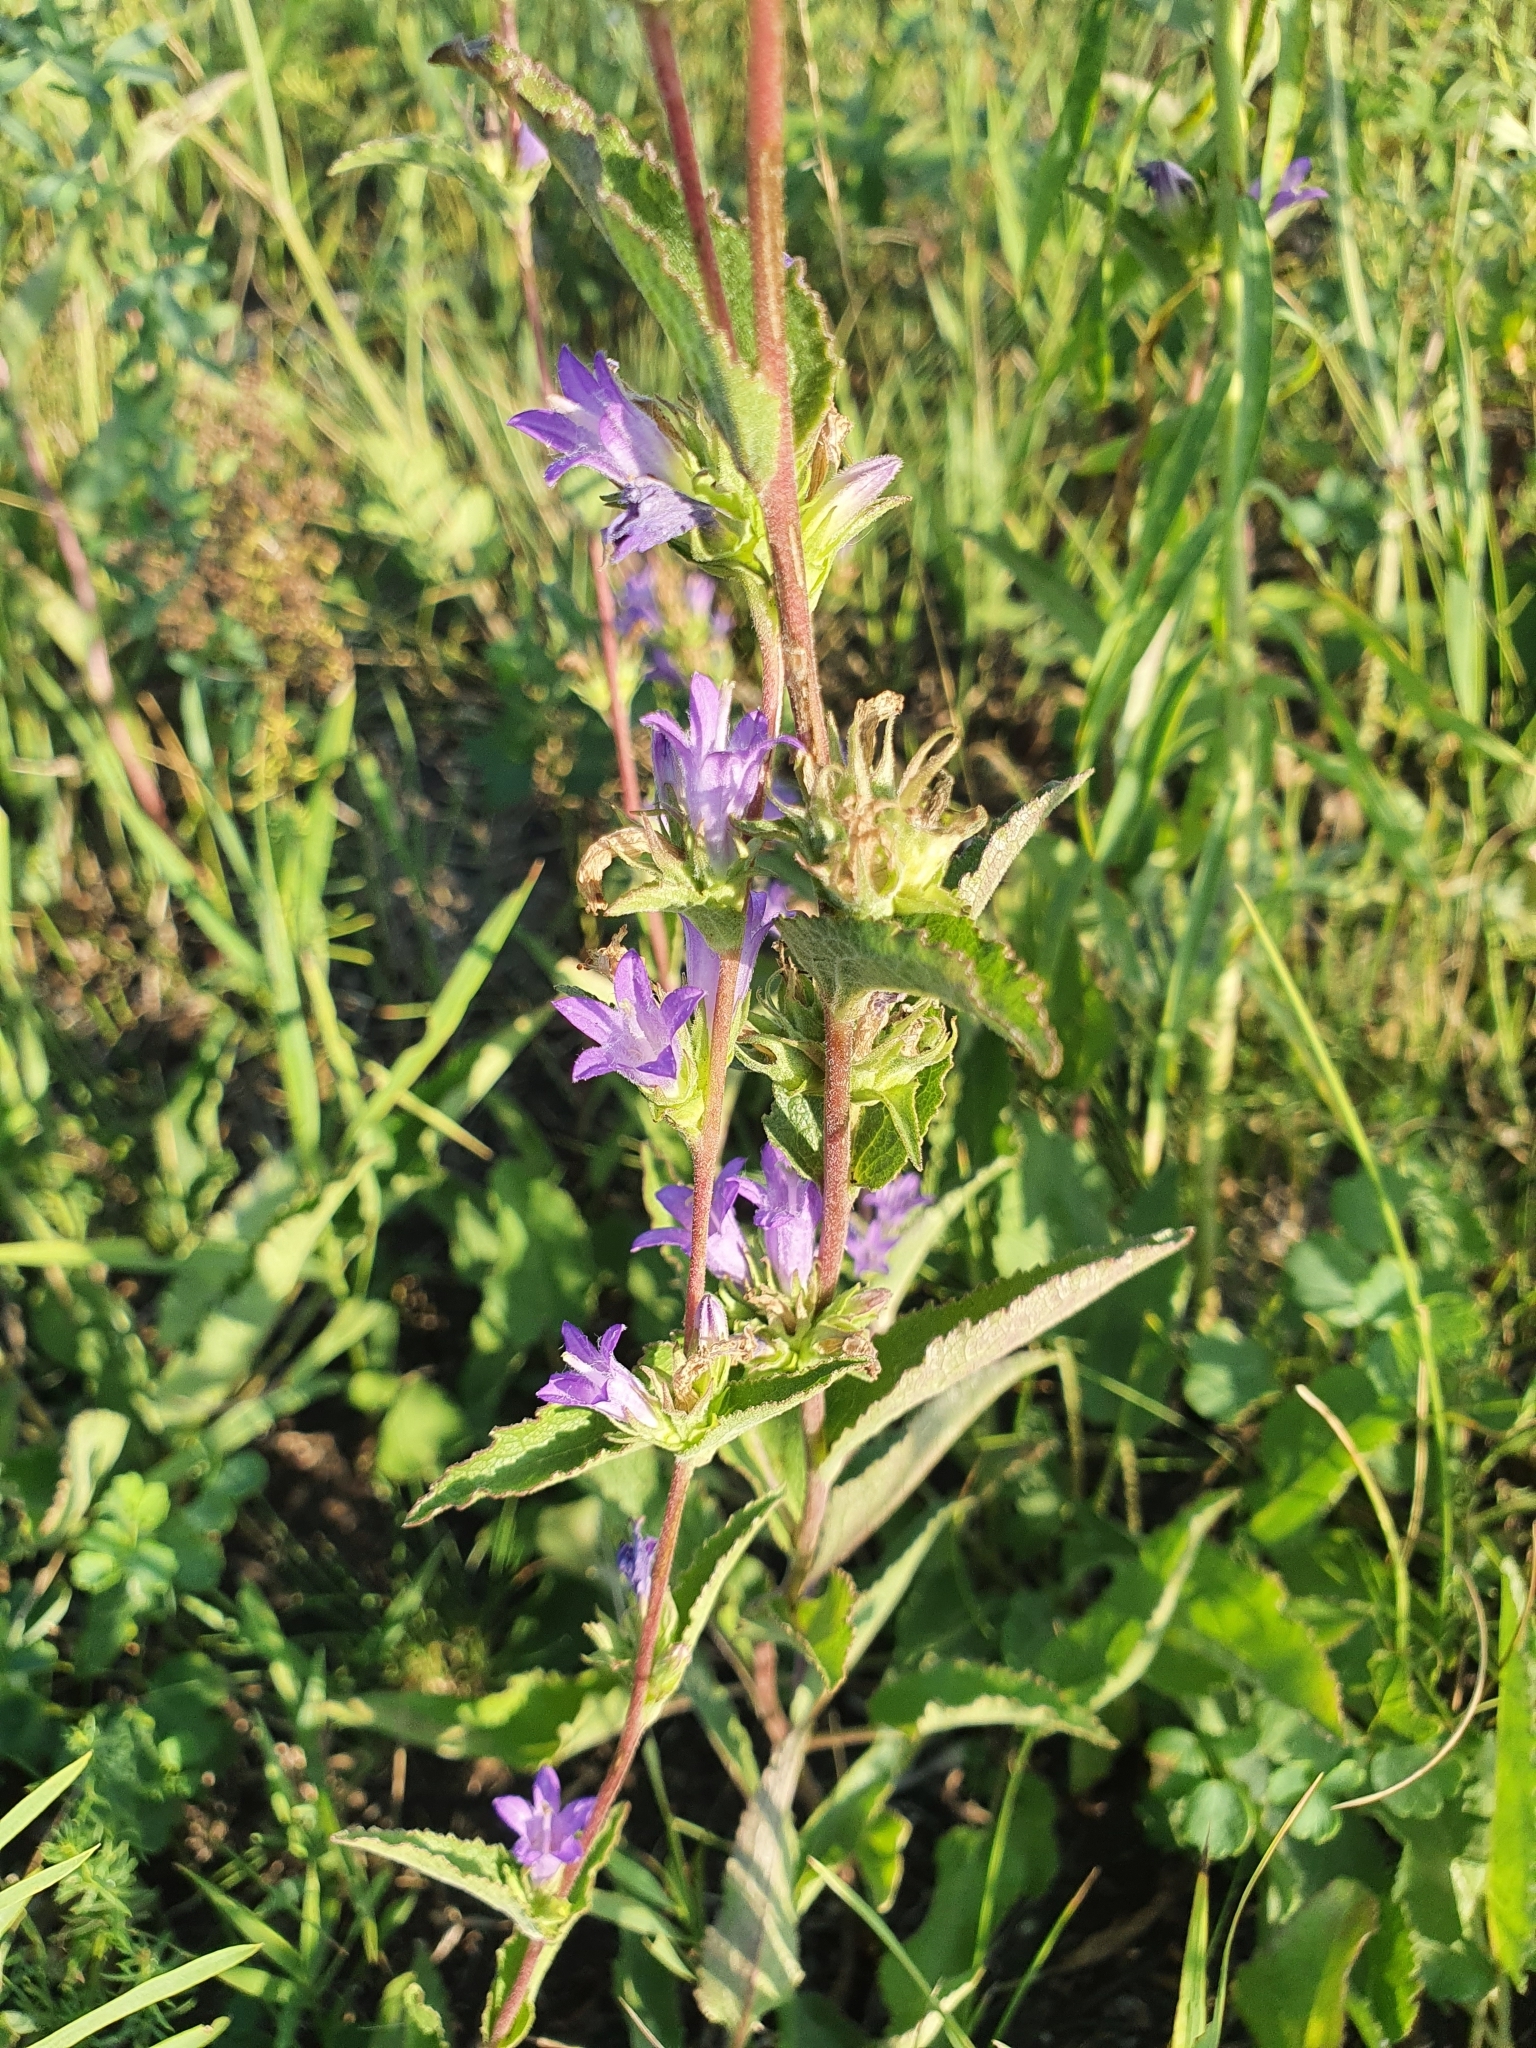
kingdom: Plantae
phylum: Tracheophyta
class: Magnoliopsida
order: Asterales
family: Campanulaceae
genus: Campanula
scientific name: Campanula glomerata
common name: Clustered bellflower
